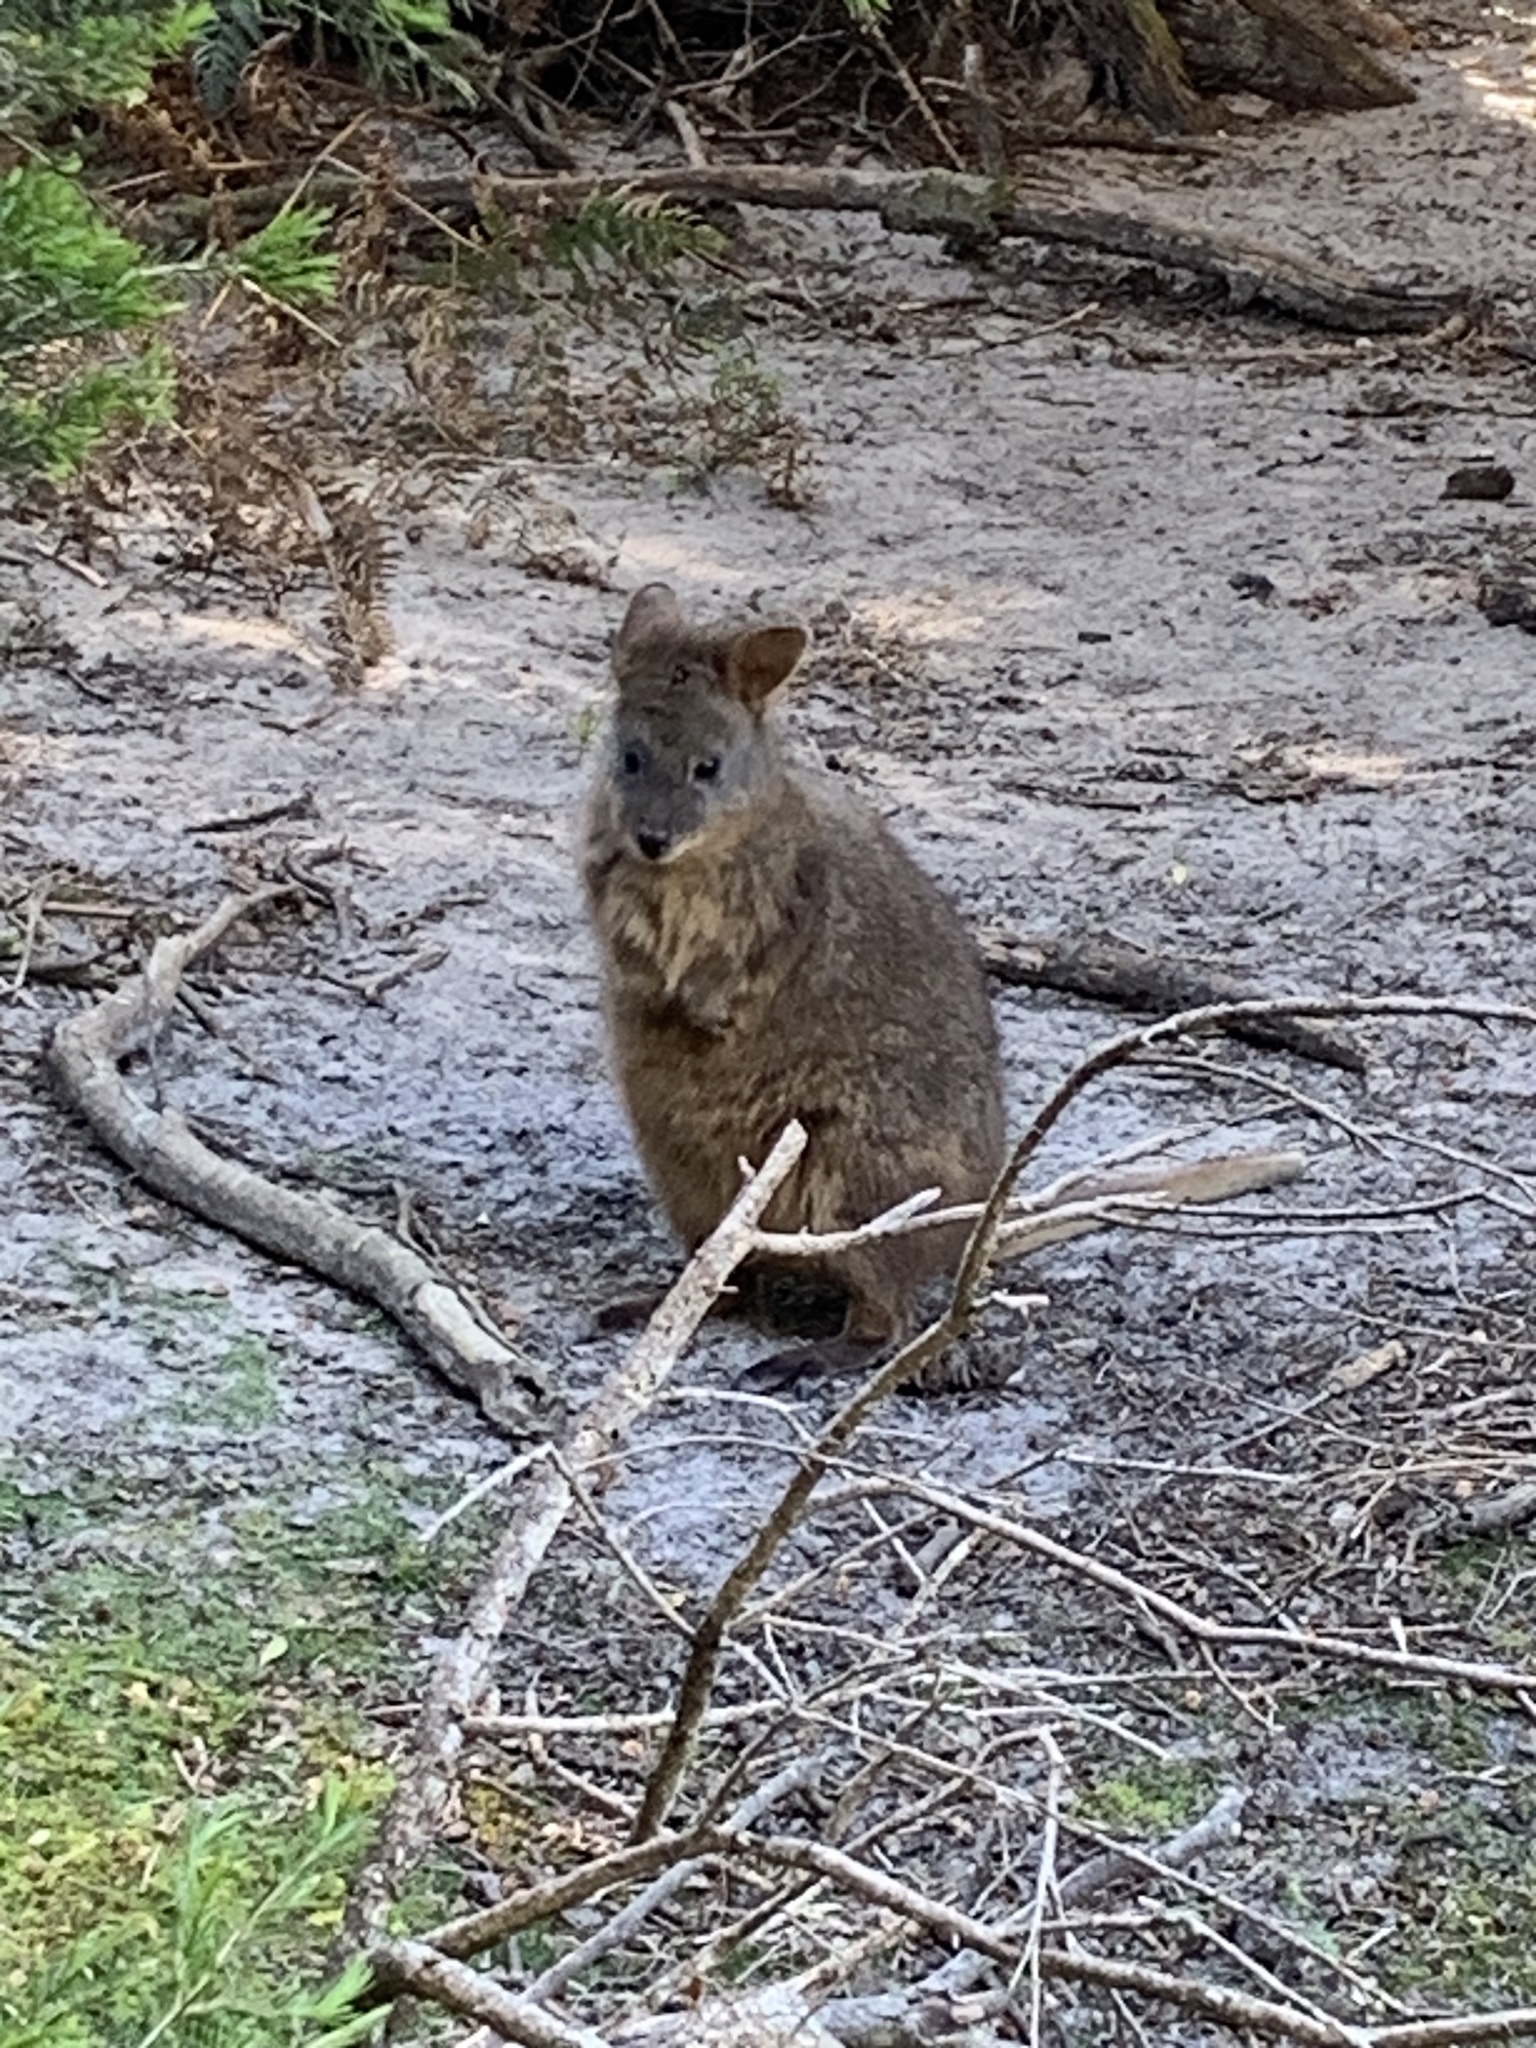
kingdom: Animalia
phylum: Chordata
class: Mammalia
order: Diprotodontia
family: Macropodidae
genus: Thylogale
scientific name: Thylogale billardierii
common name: Tasmanian pademelon
